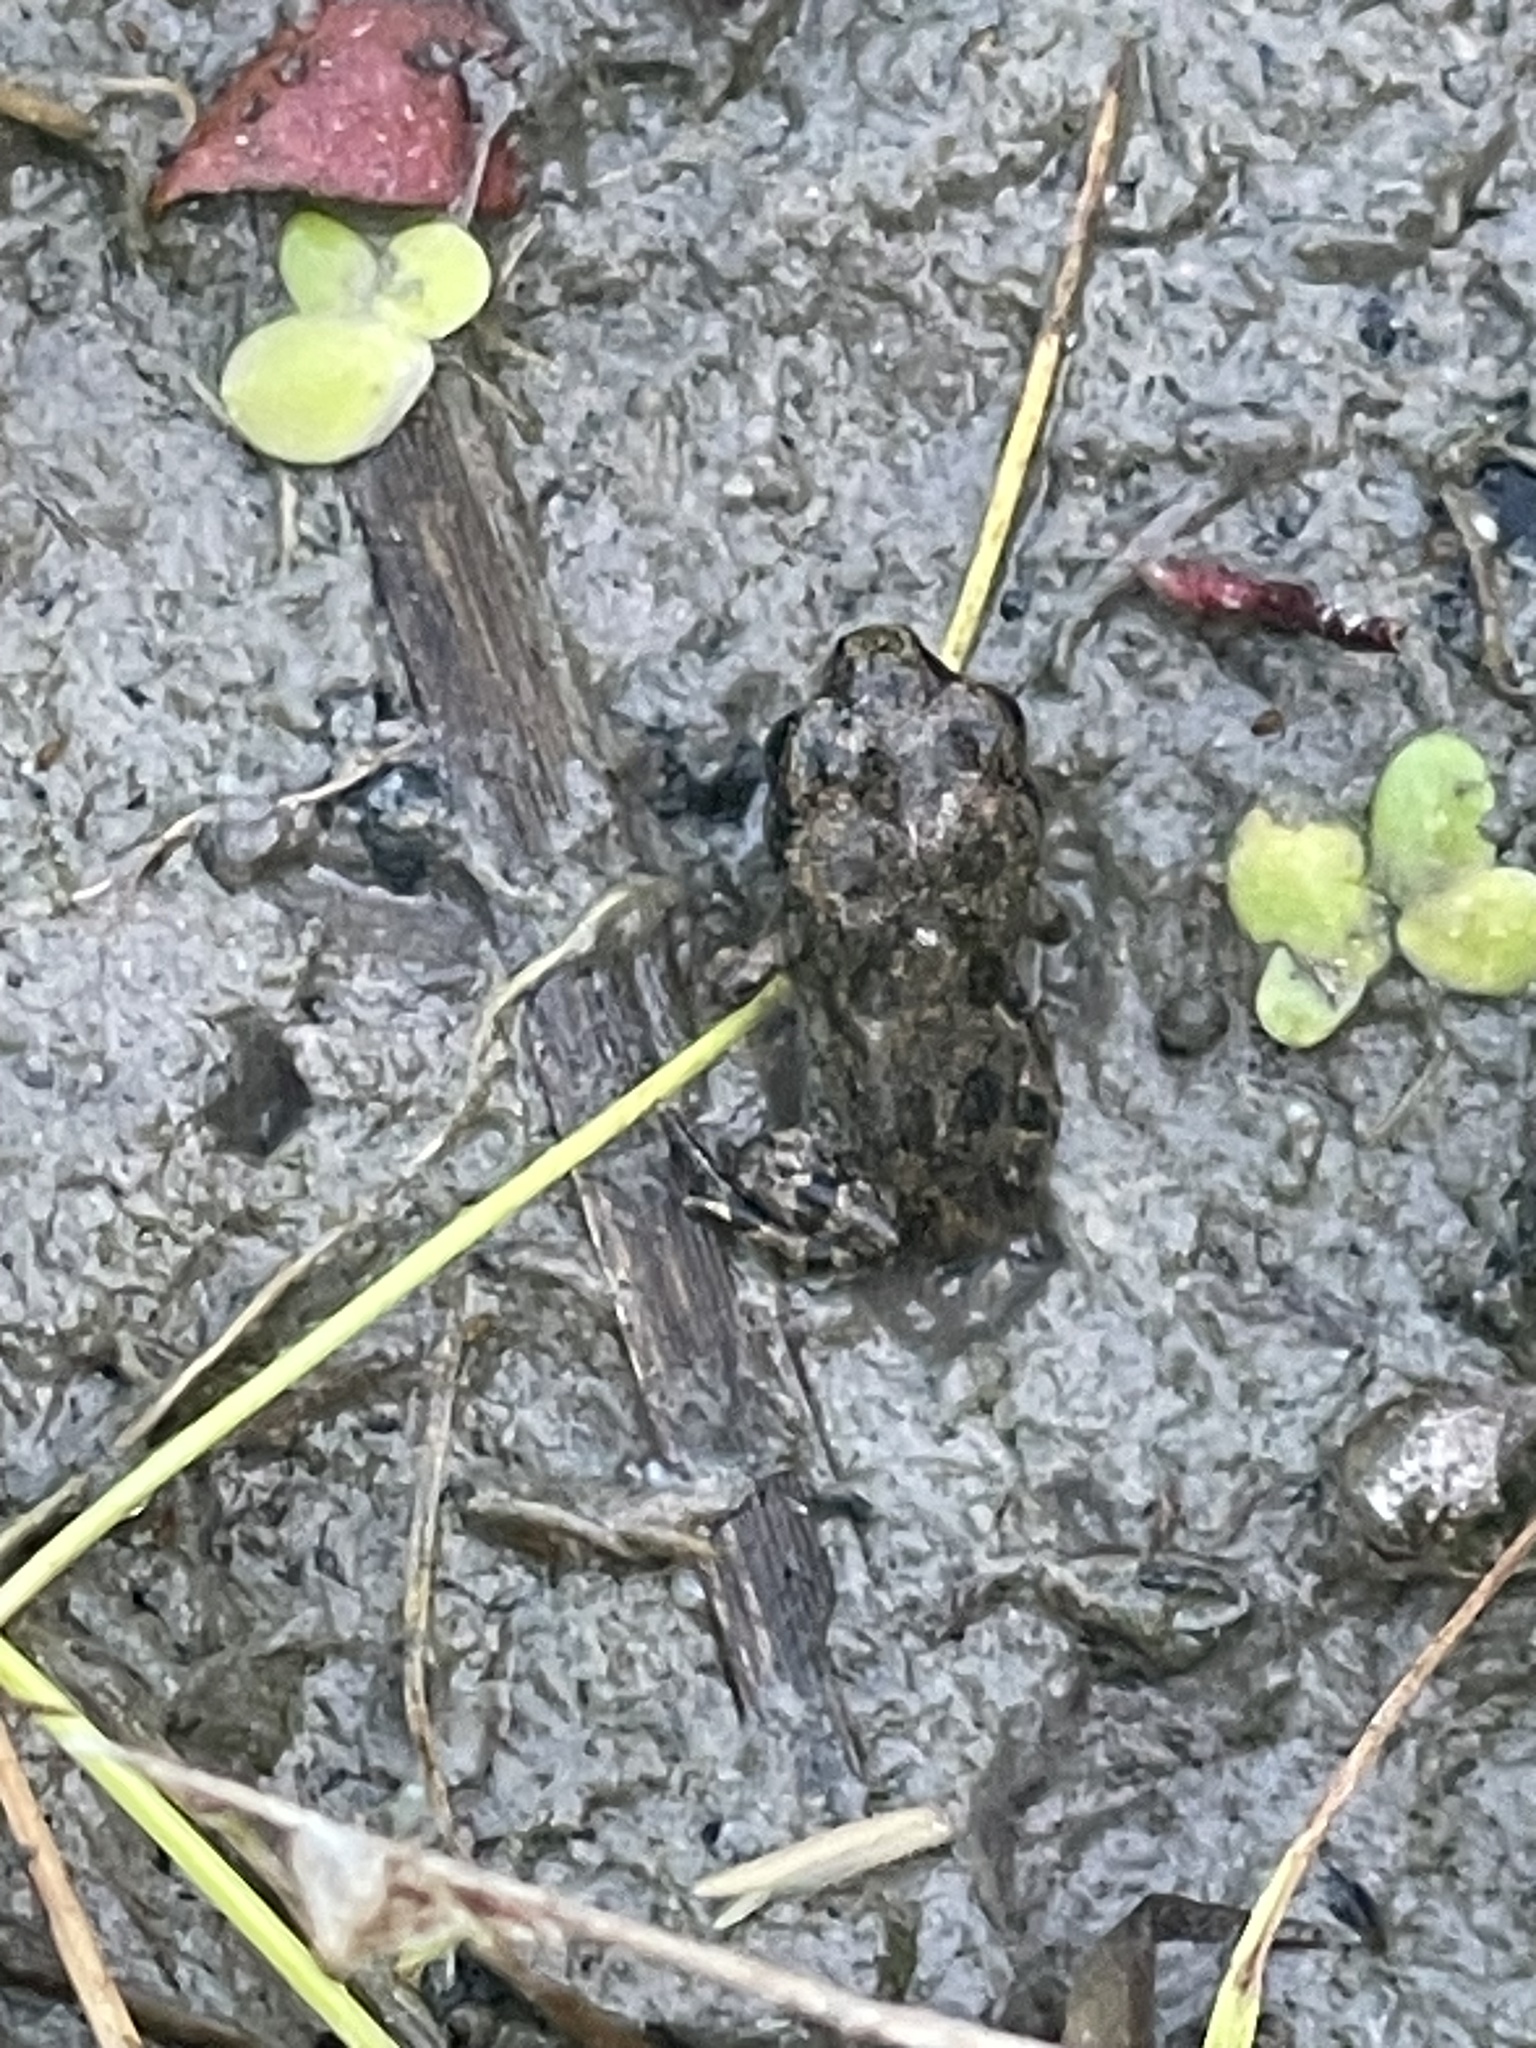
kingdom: Animalia
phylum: Chordata
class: Amphibia
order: Anura
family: Bufonidae
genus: Anaxyrus
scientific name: Anaxyrus fowleri
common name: Fowler's toad
